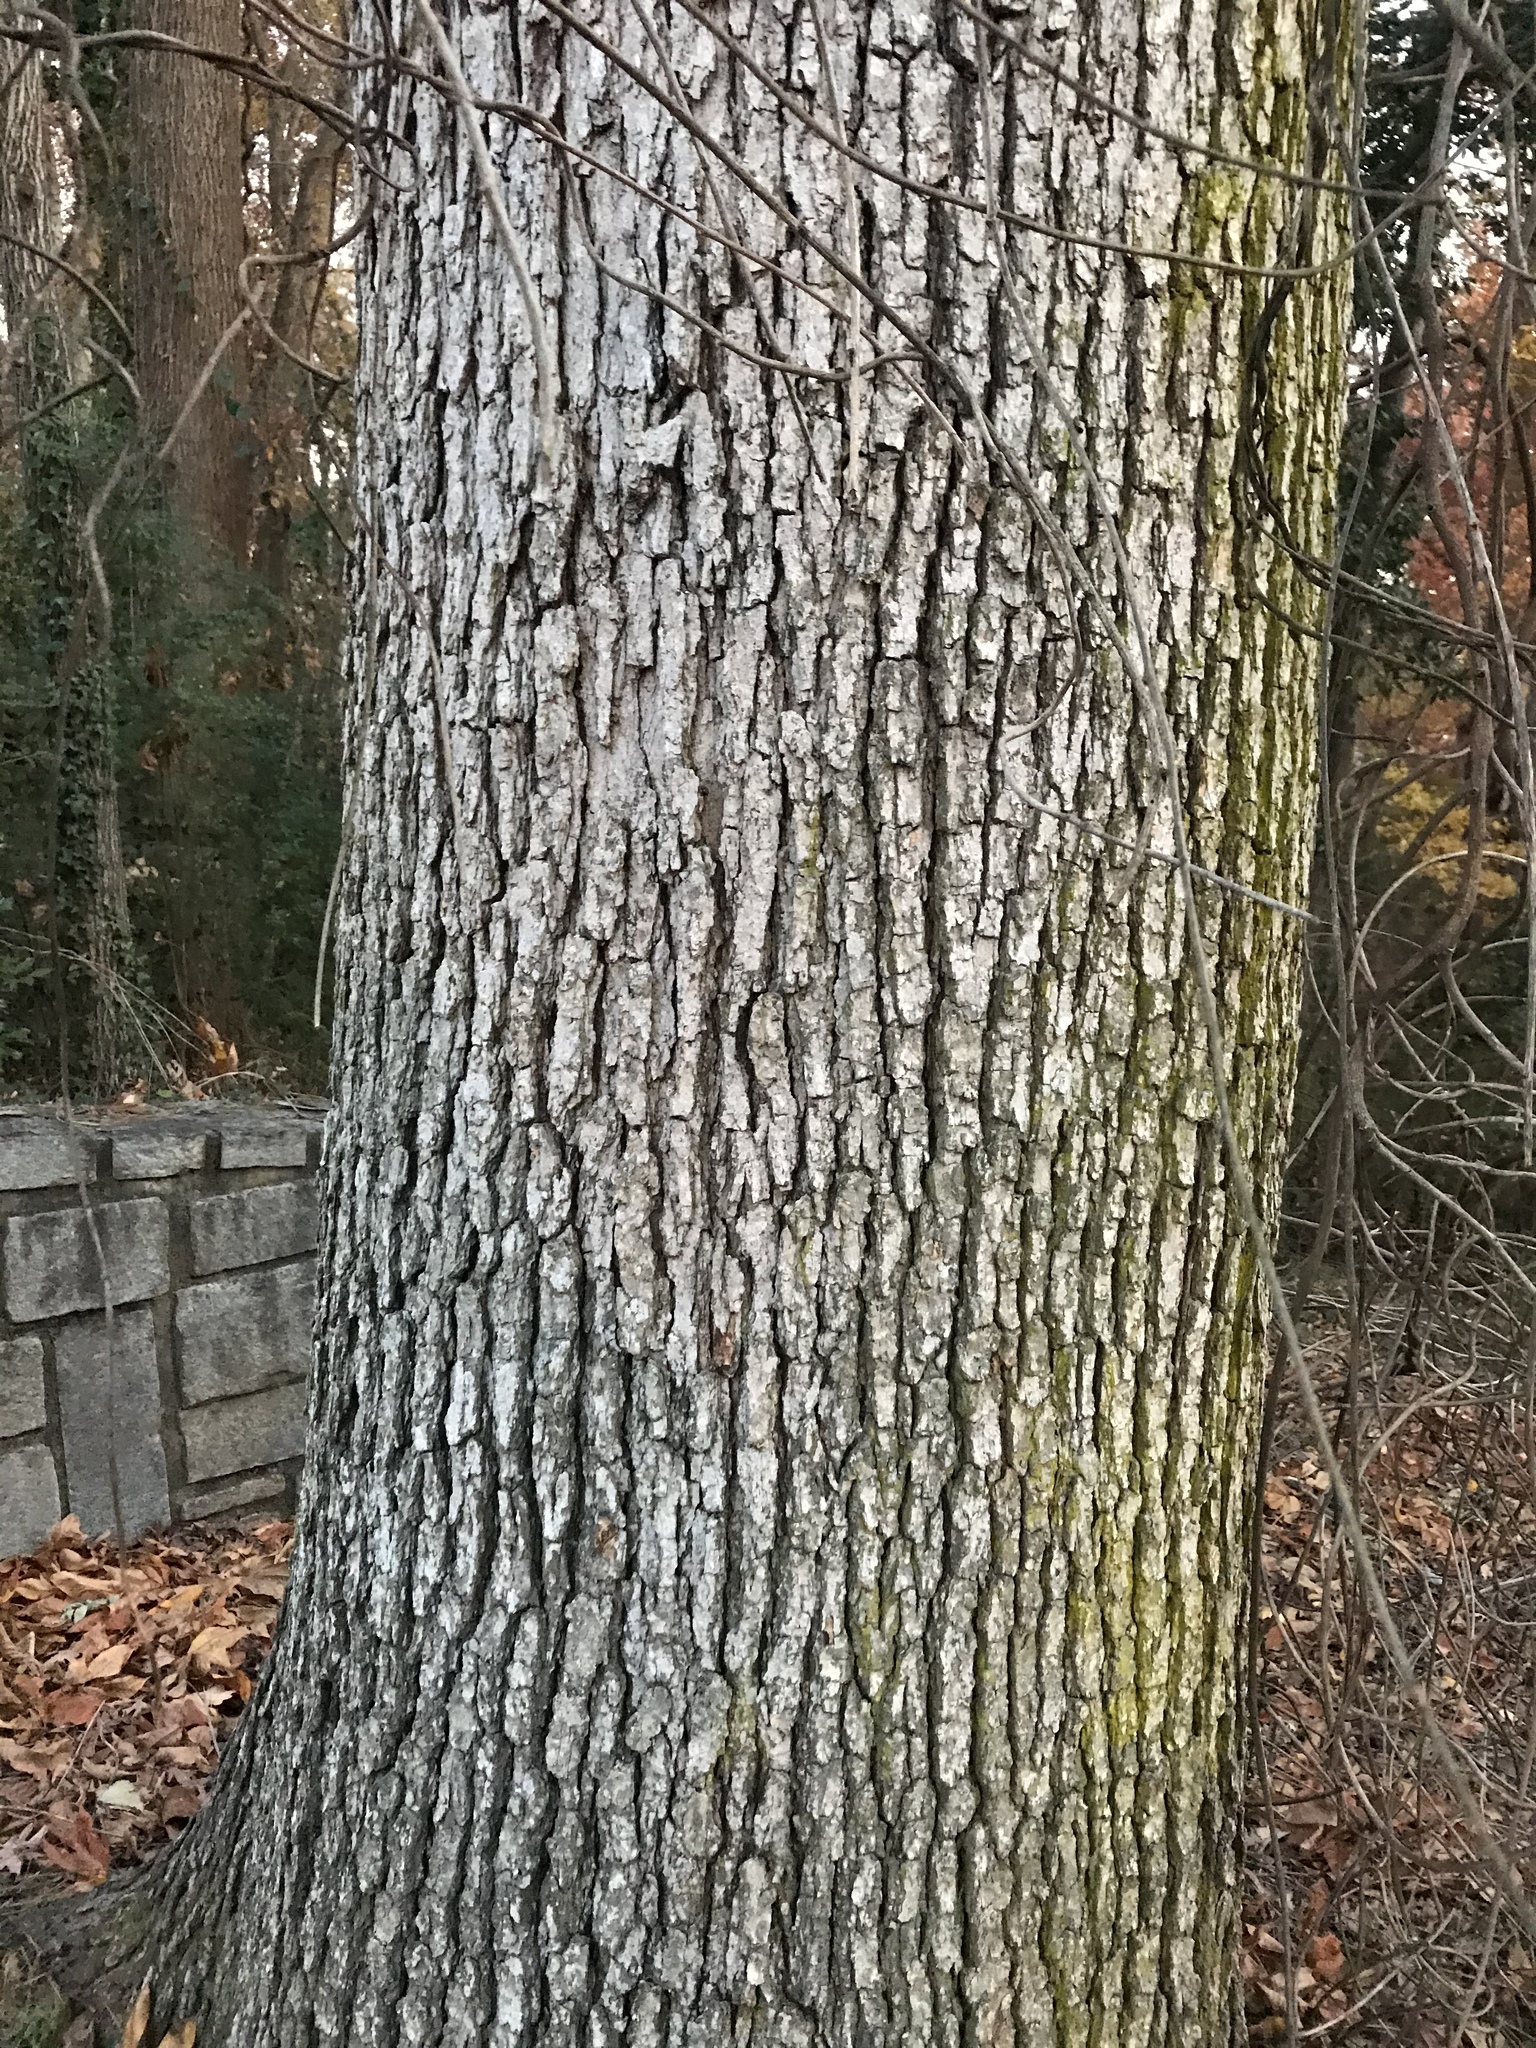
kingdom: Plantae
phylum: Tracheophyta
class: Magnoliopsida
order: Fagales
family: Fagaceae
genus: Quercus
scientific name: Quercus alba
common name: White oak
